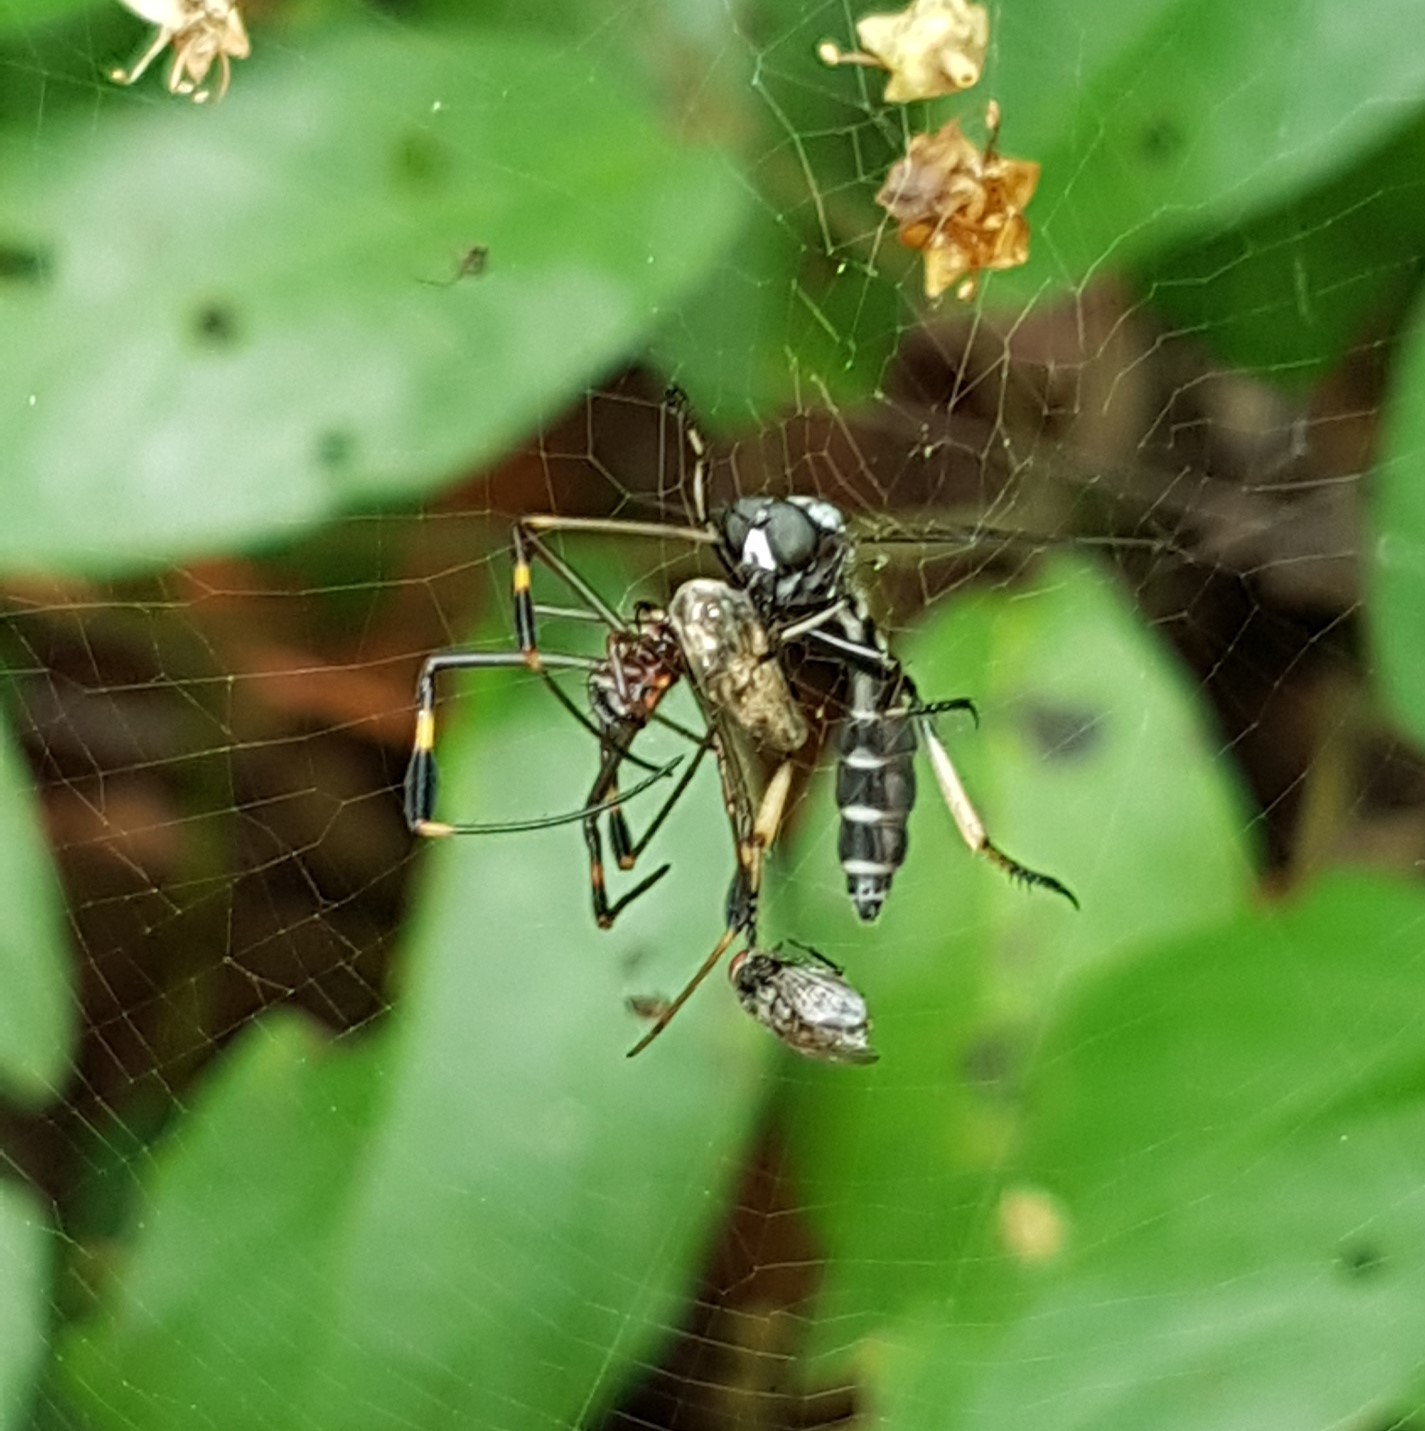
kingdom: Animalia
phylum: Arthropoda
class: Arachnida
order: Araneae
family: Araneidae
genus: Trichonephila
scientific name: Trichonephila clavipes
